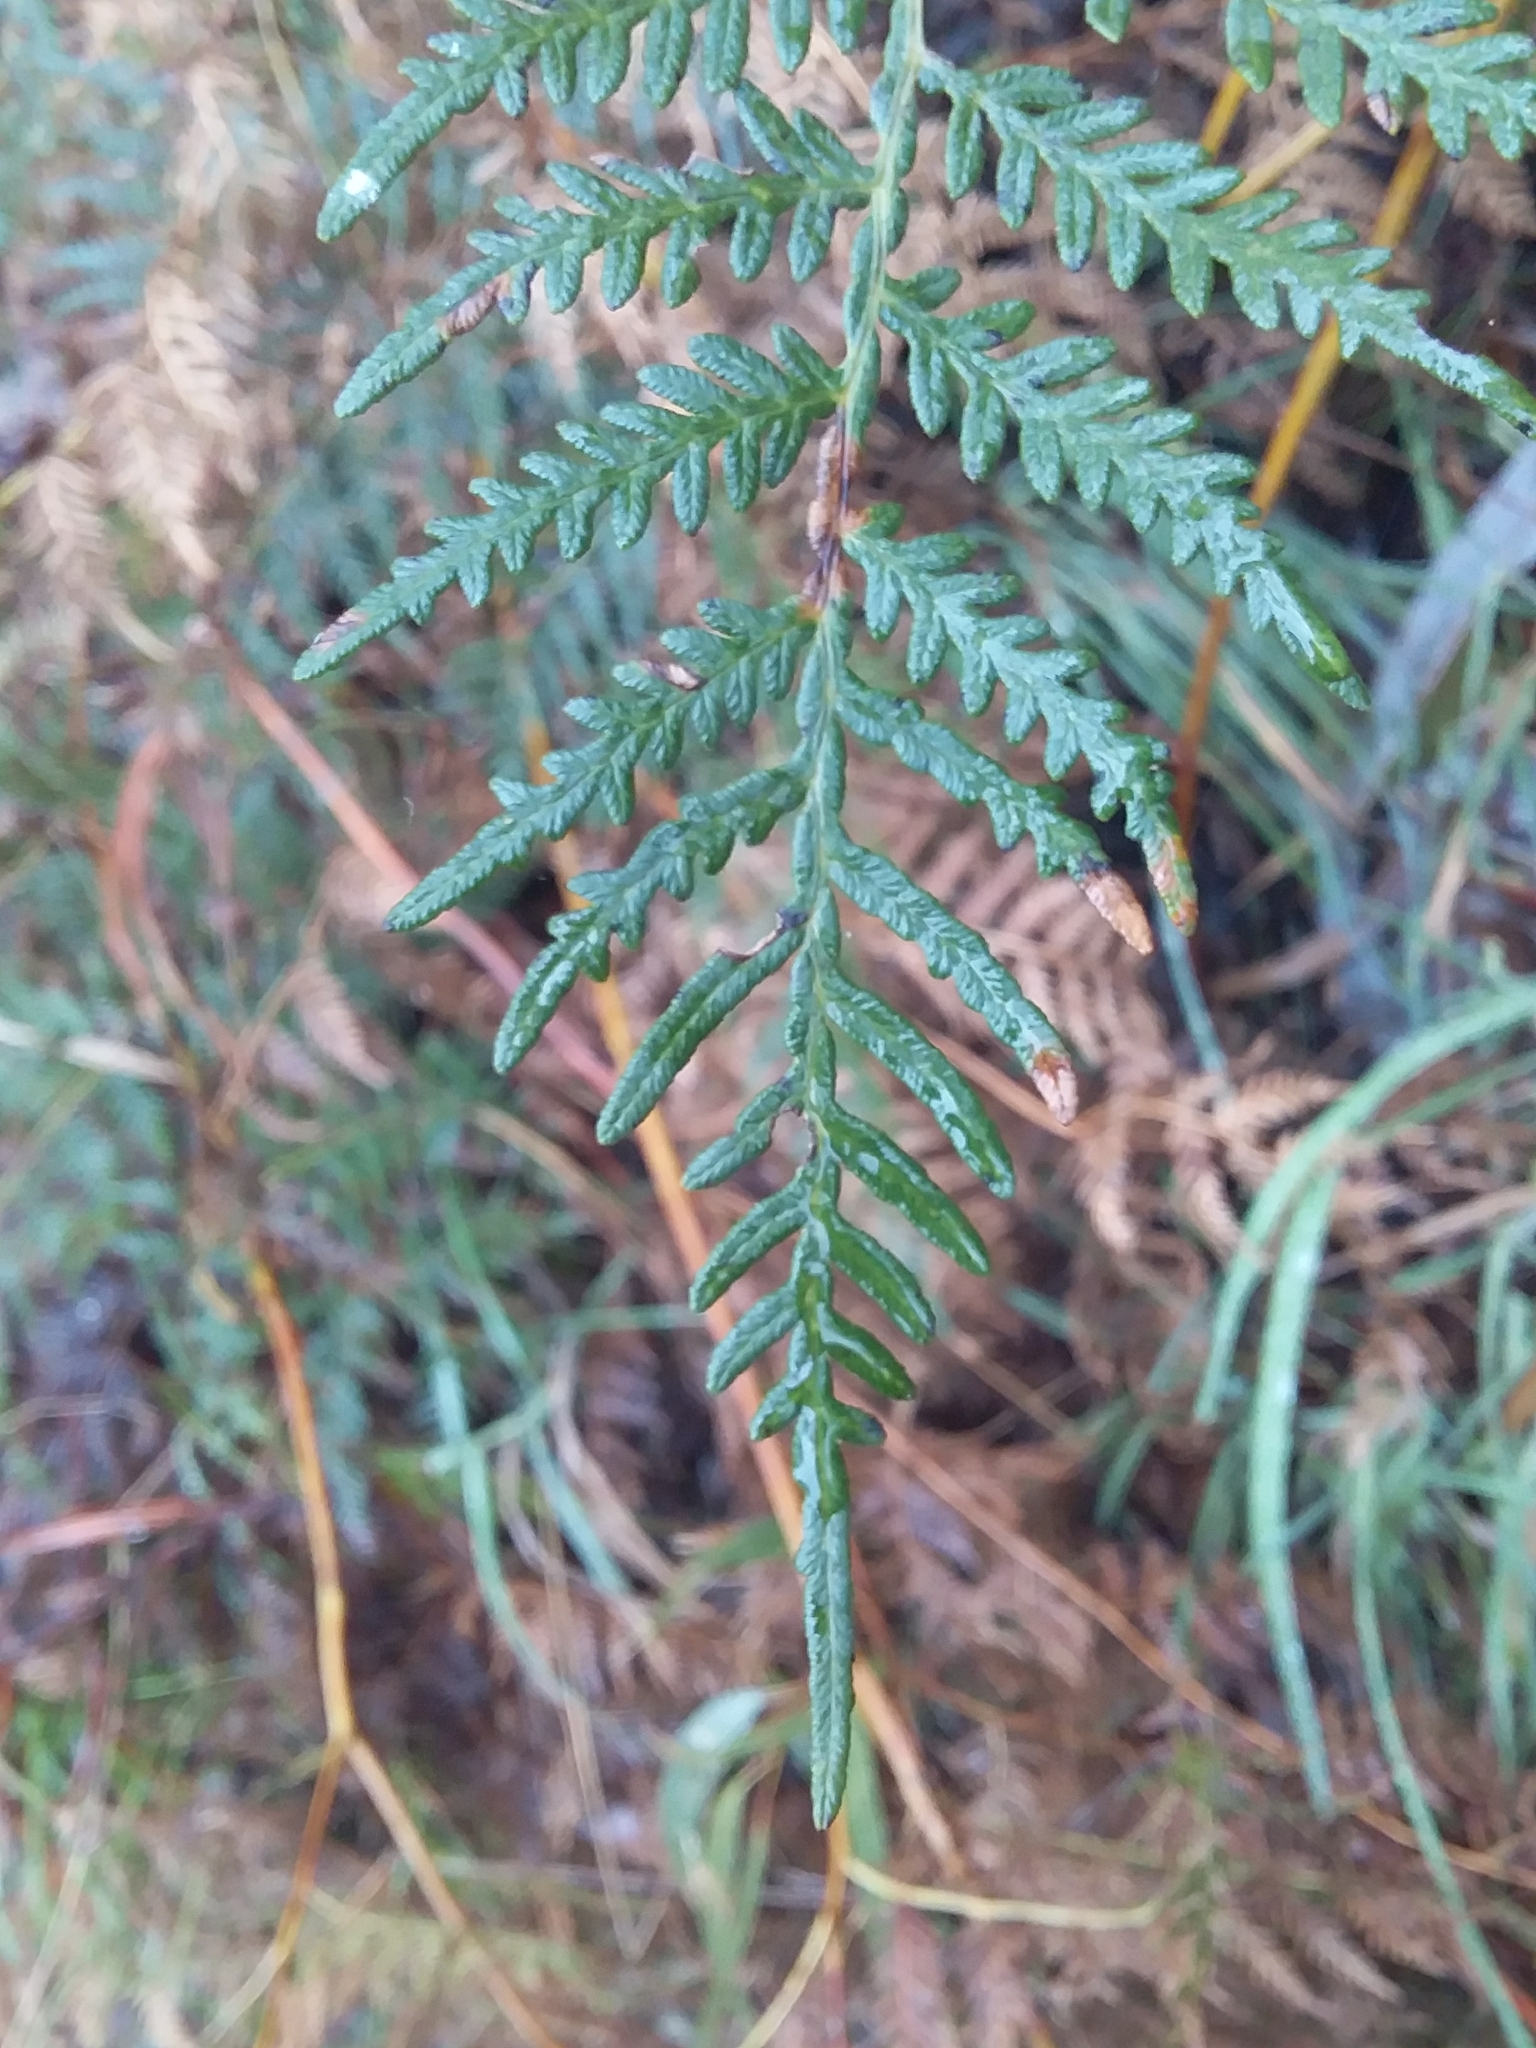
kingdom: Plantae
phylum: Tracheophyta
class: Polypodiopsida
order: Polypodiales
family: Dennstaedtiaceae
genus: Pteridium
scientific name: Pteridium esculentum
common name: Bracken fern
